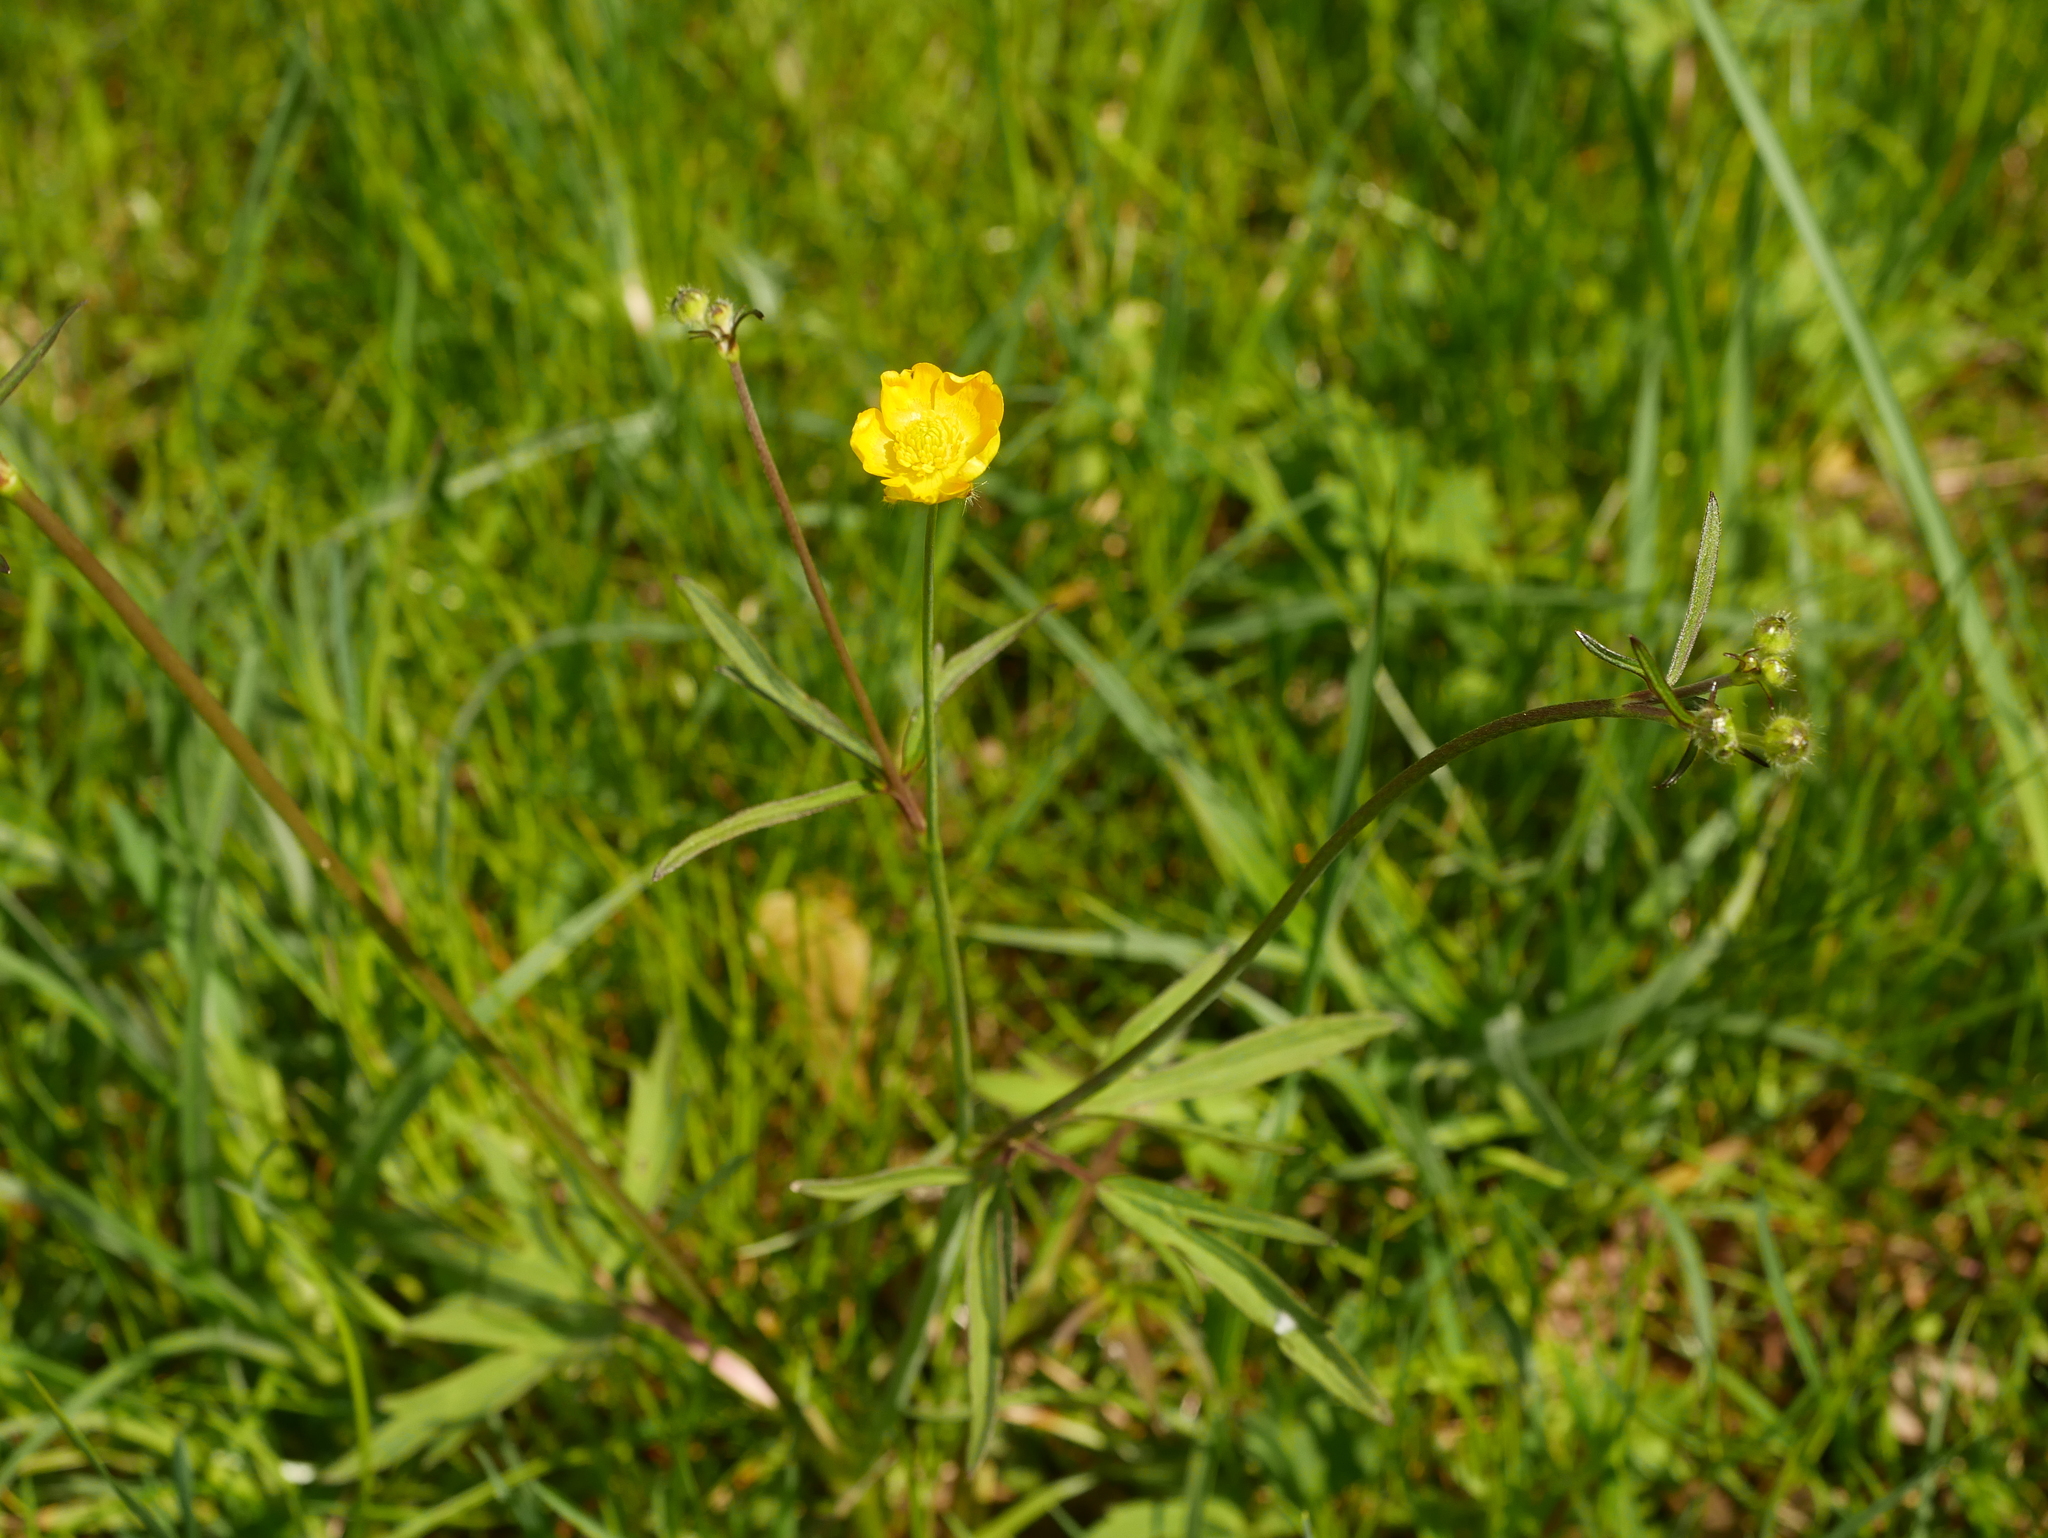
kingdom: Plantae
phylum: Tracheophyta
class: Magnoliopsida
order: Ranunculales
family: Ranunculaceae
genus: Ranunculus
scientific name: Ranunculus acris
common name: Meadow buttercup
